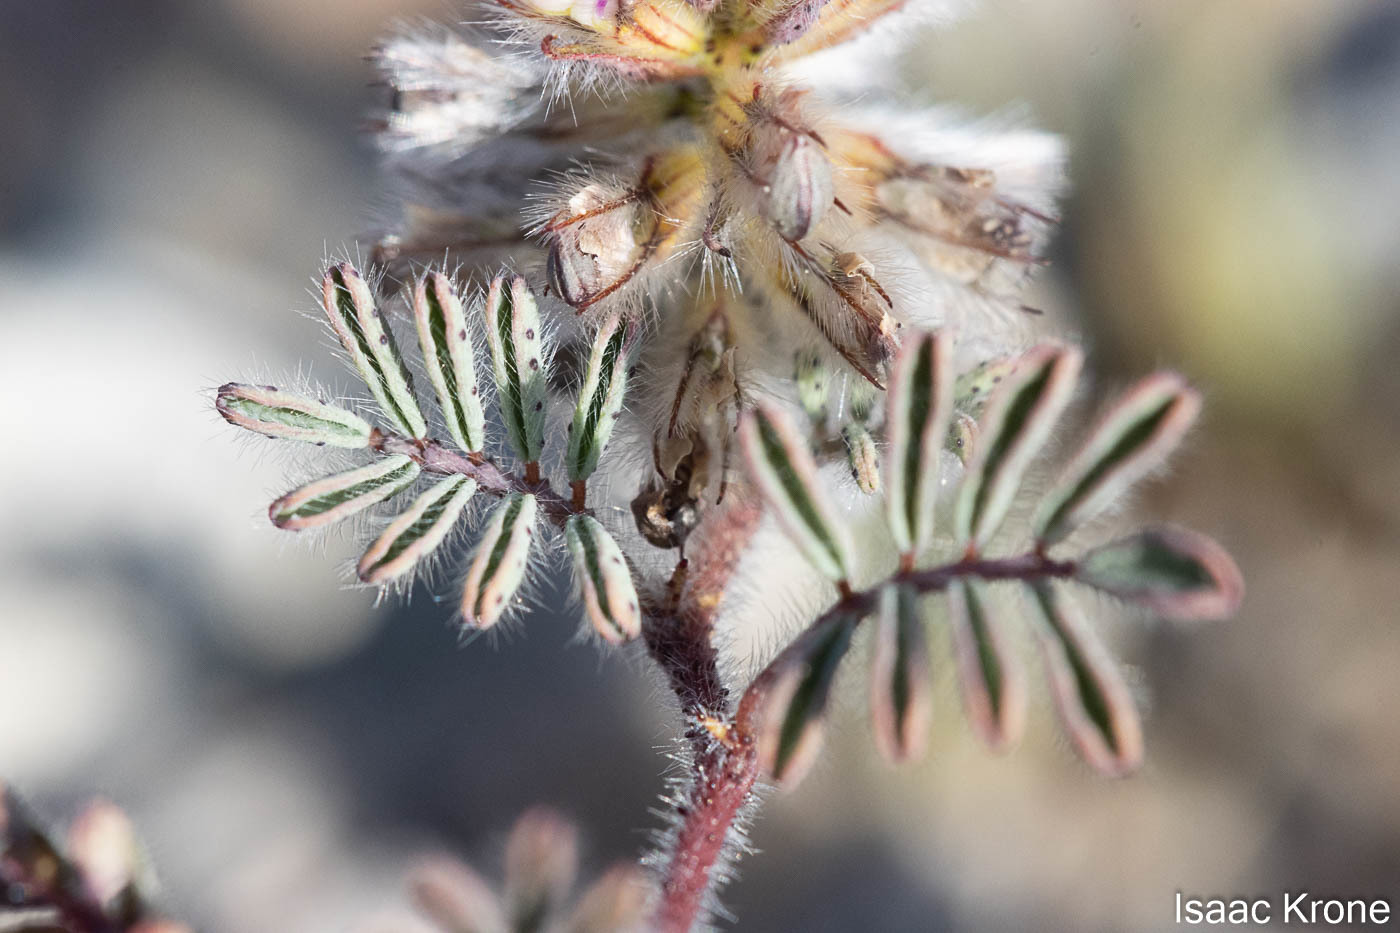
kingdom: Plantae
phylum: Tracheophyta
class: Magnoliopsida
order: Fabales
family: Fabaceae
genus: Dalea
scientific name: Dalea mollis
